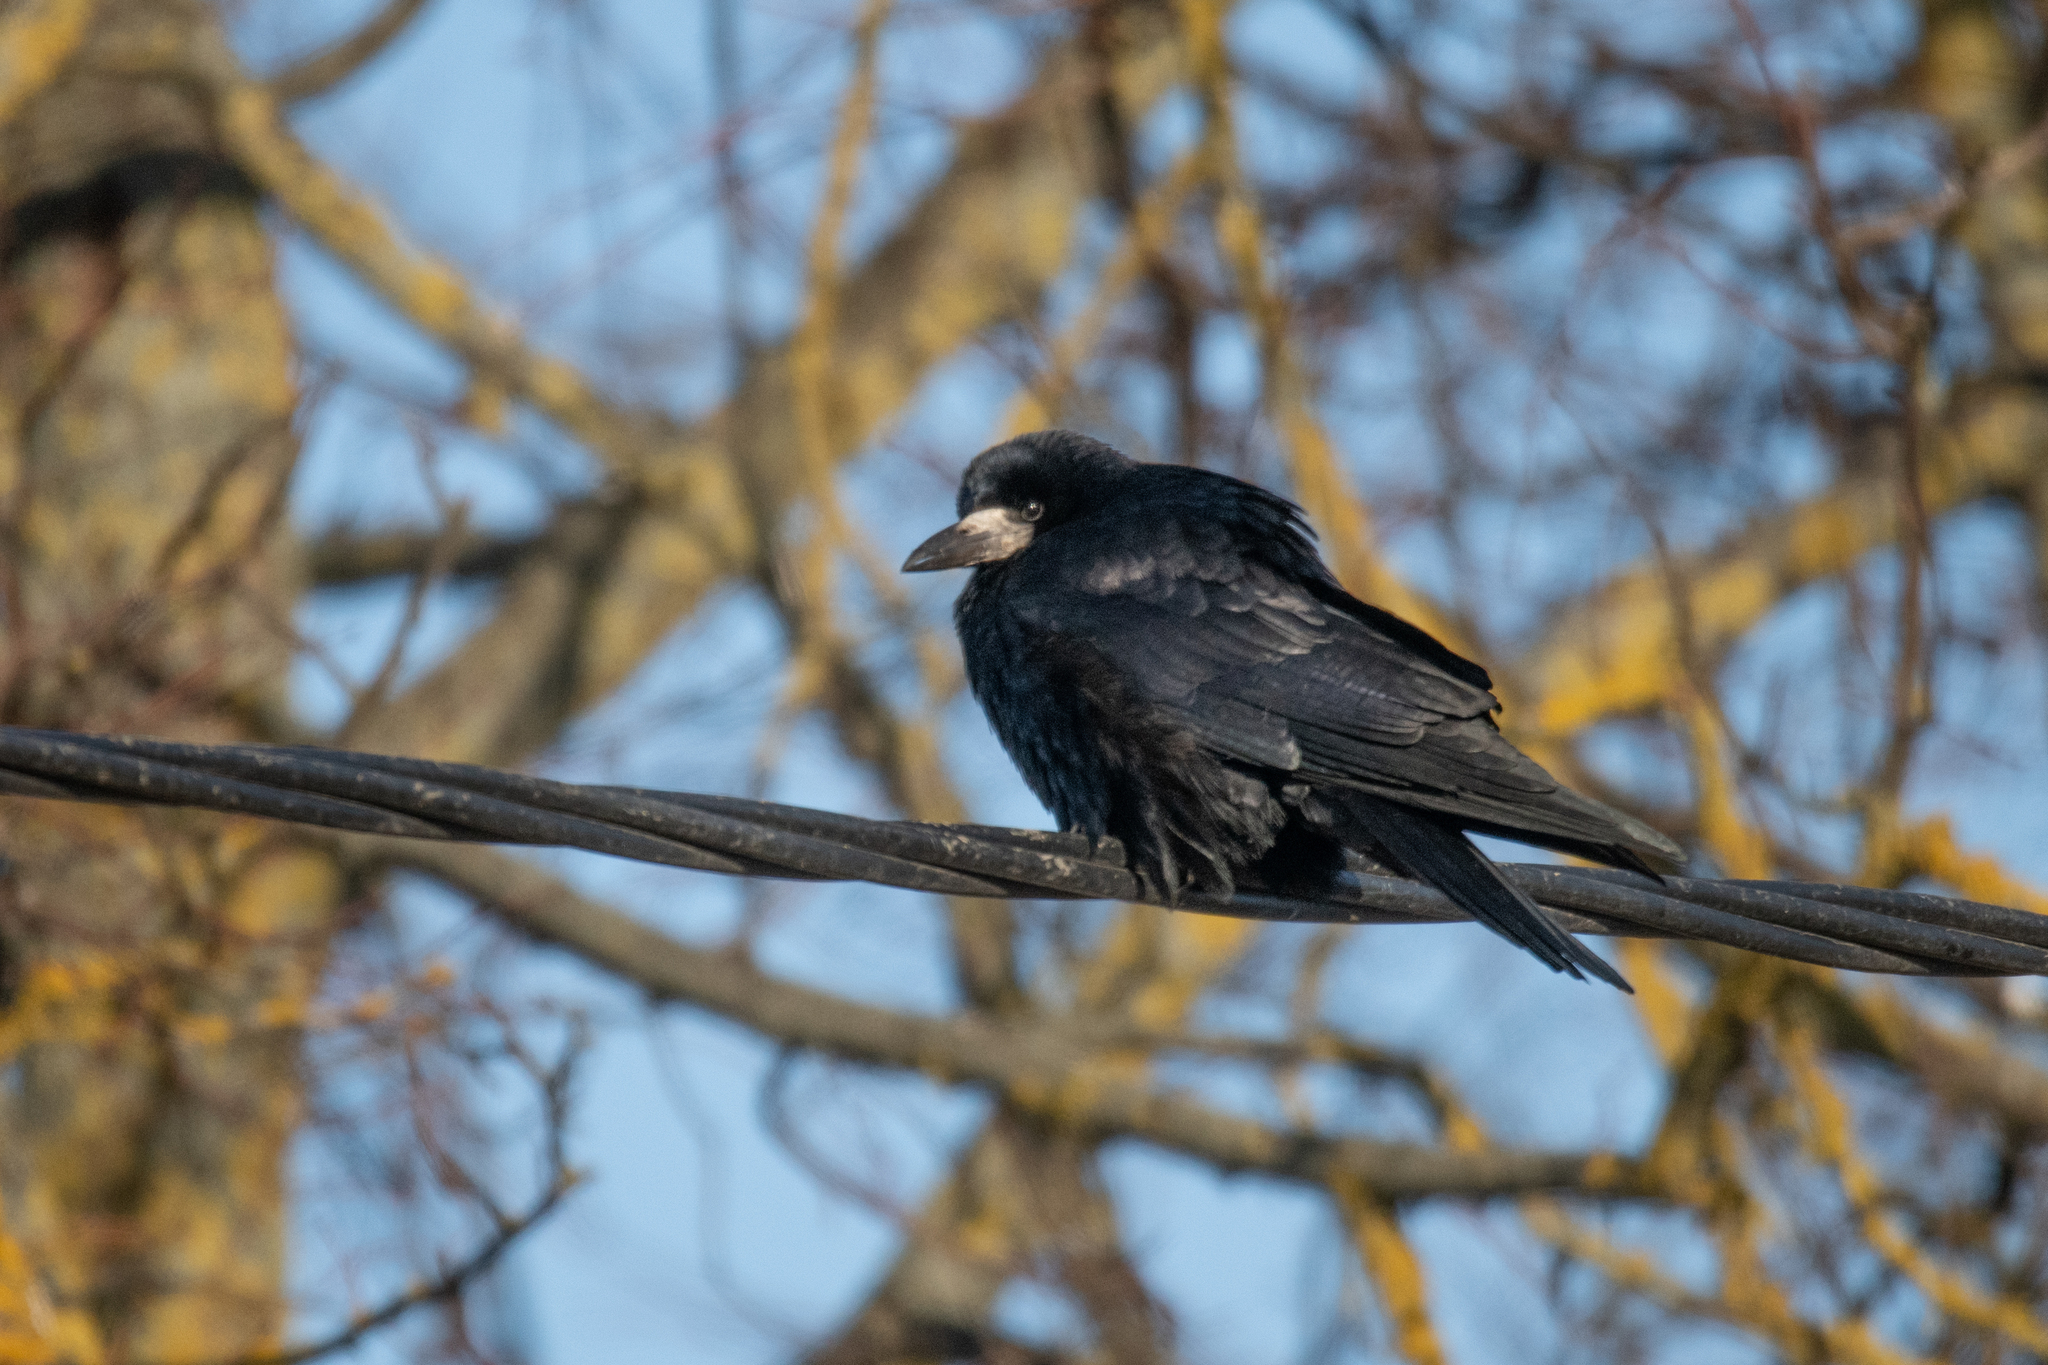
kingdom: Animalia
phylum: Chordata
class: Aves
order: Passeriformes
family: Corvidae
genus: Corvus
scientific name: Corvus frugilegus
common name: Rook
